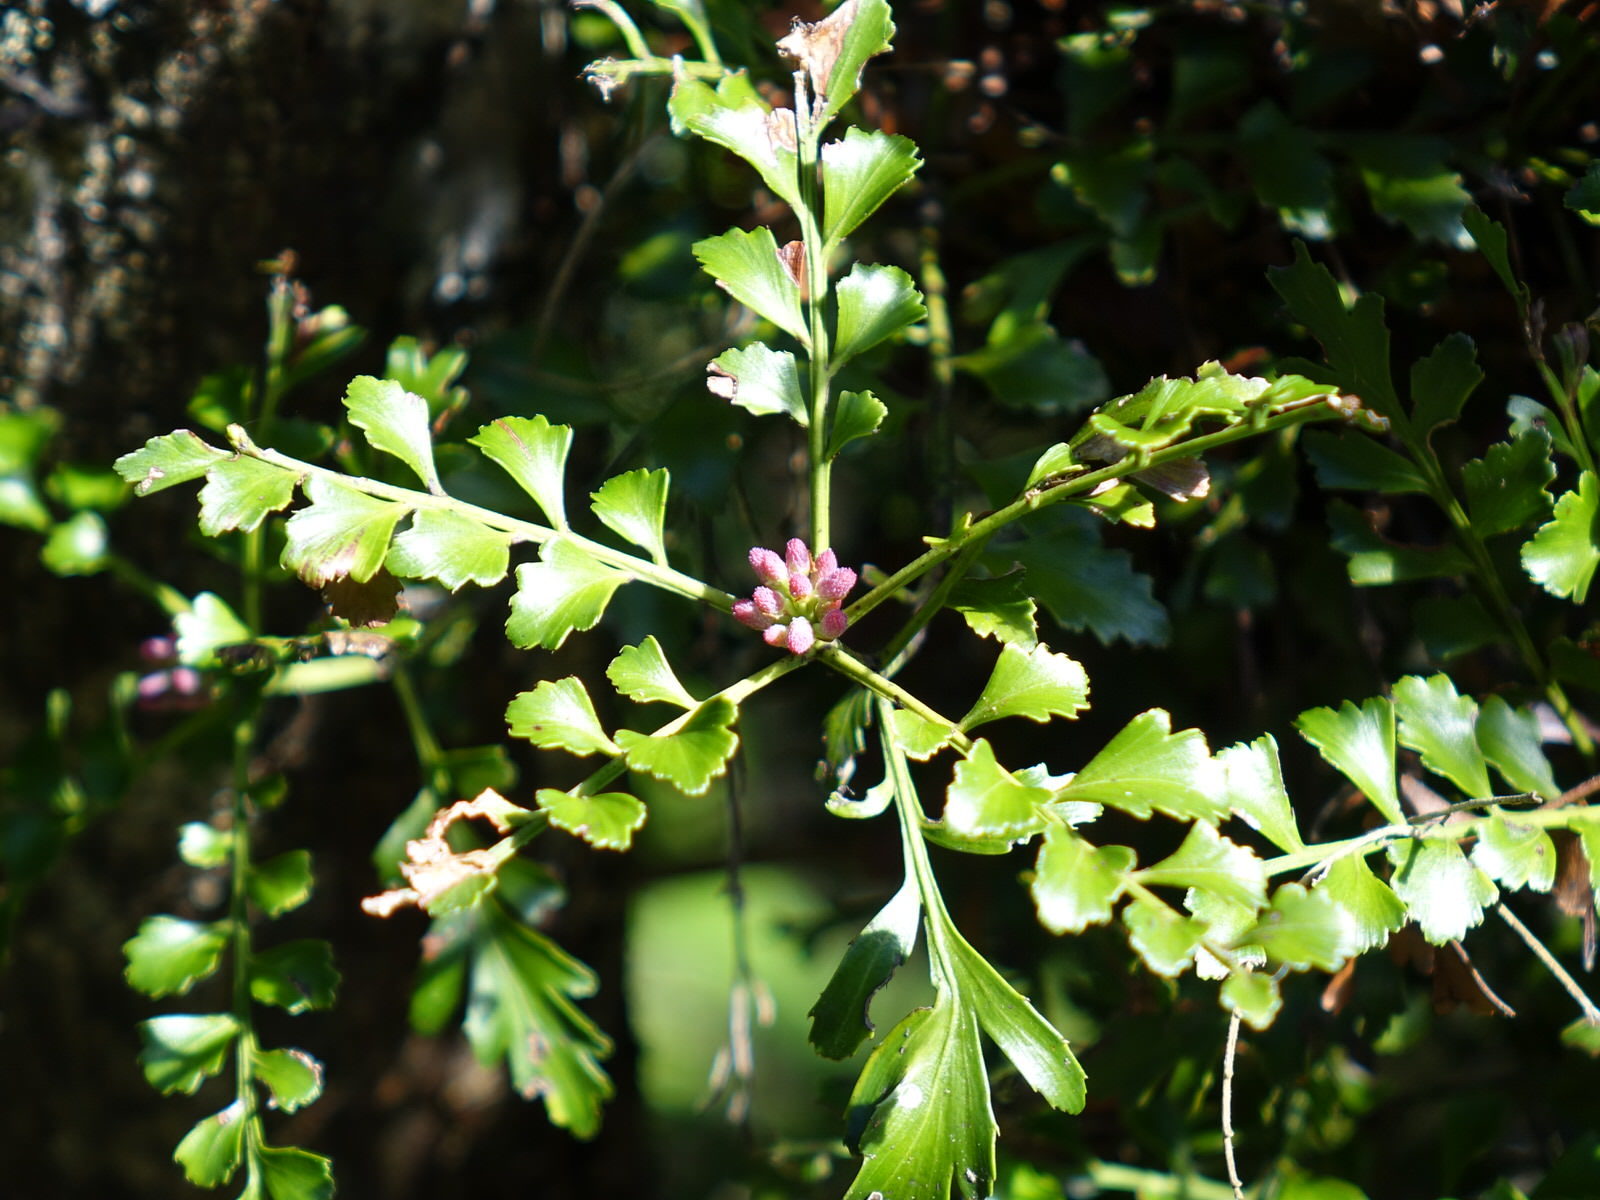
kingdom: Plantae
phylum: Tracheophyta
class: Pinopsida
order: Pinales
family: Phyllocladaceae
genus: Phyllocladus
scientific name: Phyllocladus trichomanoides
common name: Celery pine
